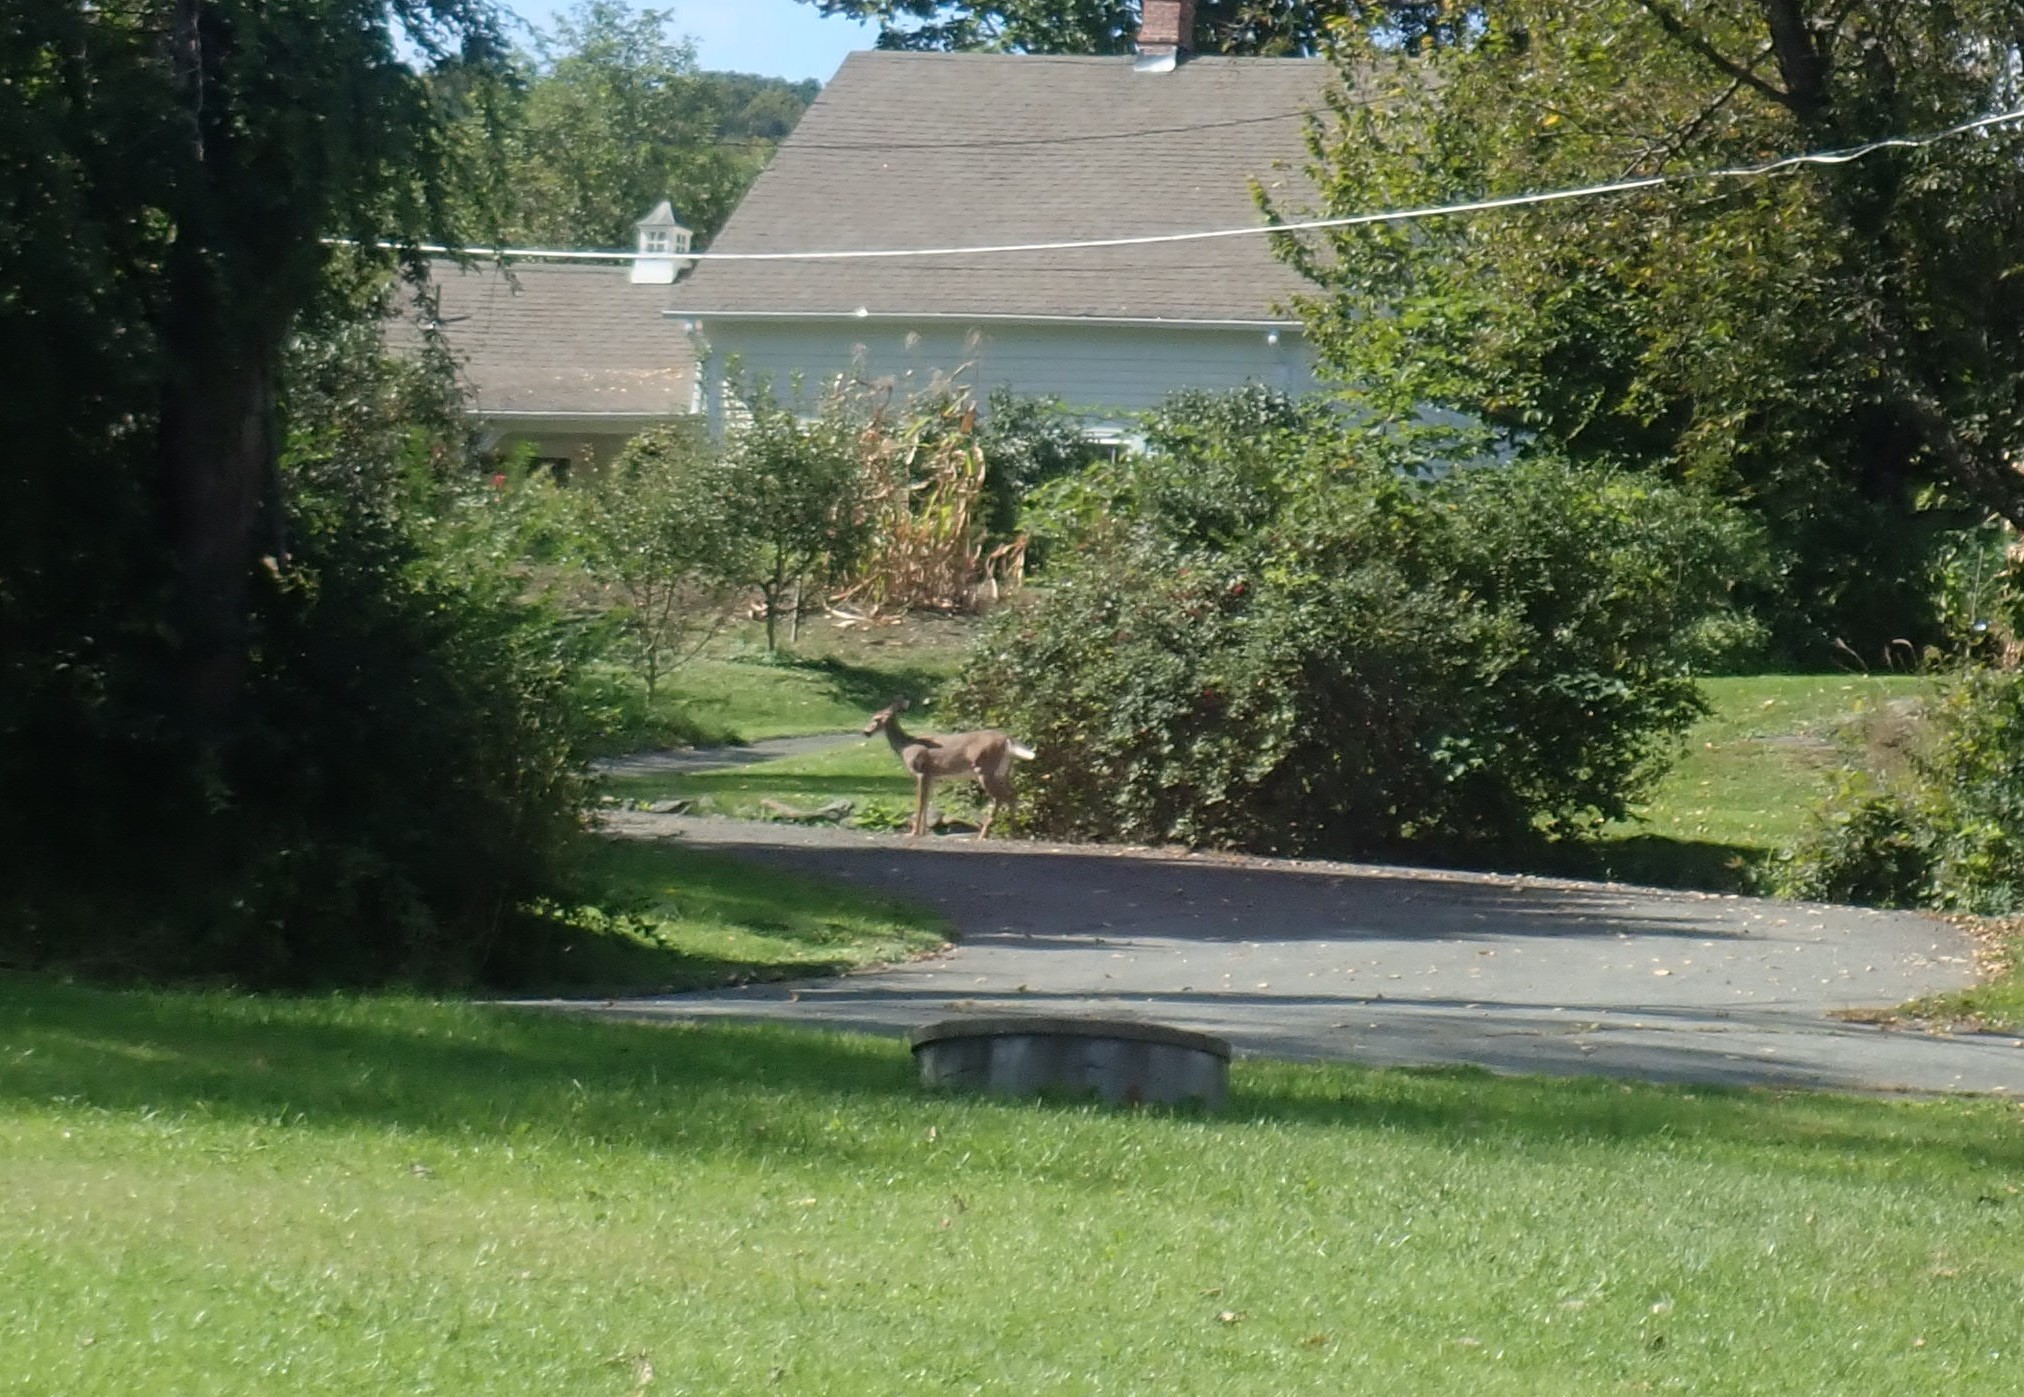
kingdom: Animalia
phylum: Chordata
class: Mammalia
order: Artiodactyla
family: Cervidae
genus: Odocoileus
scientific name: Odocoileus virginianus
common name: White-tailed deer
